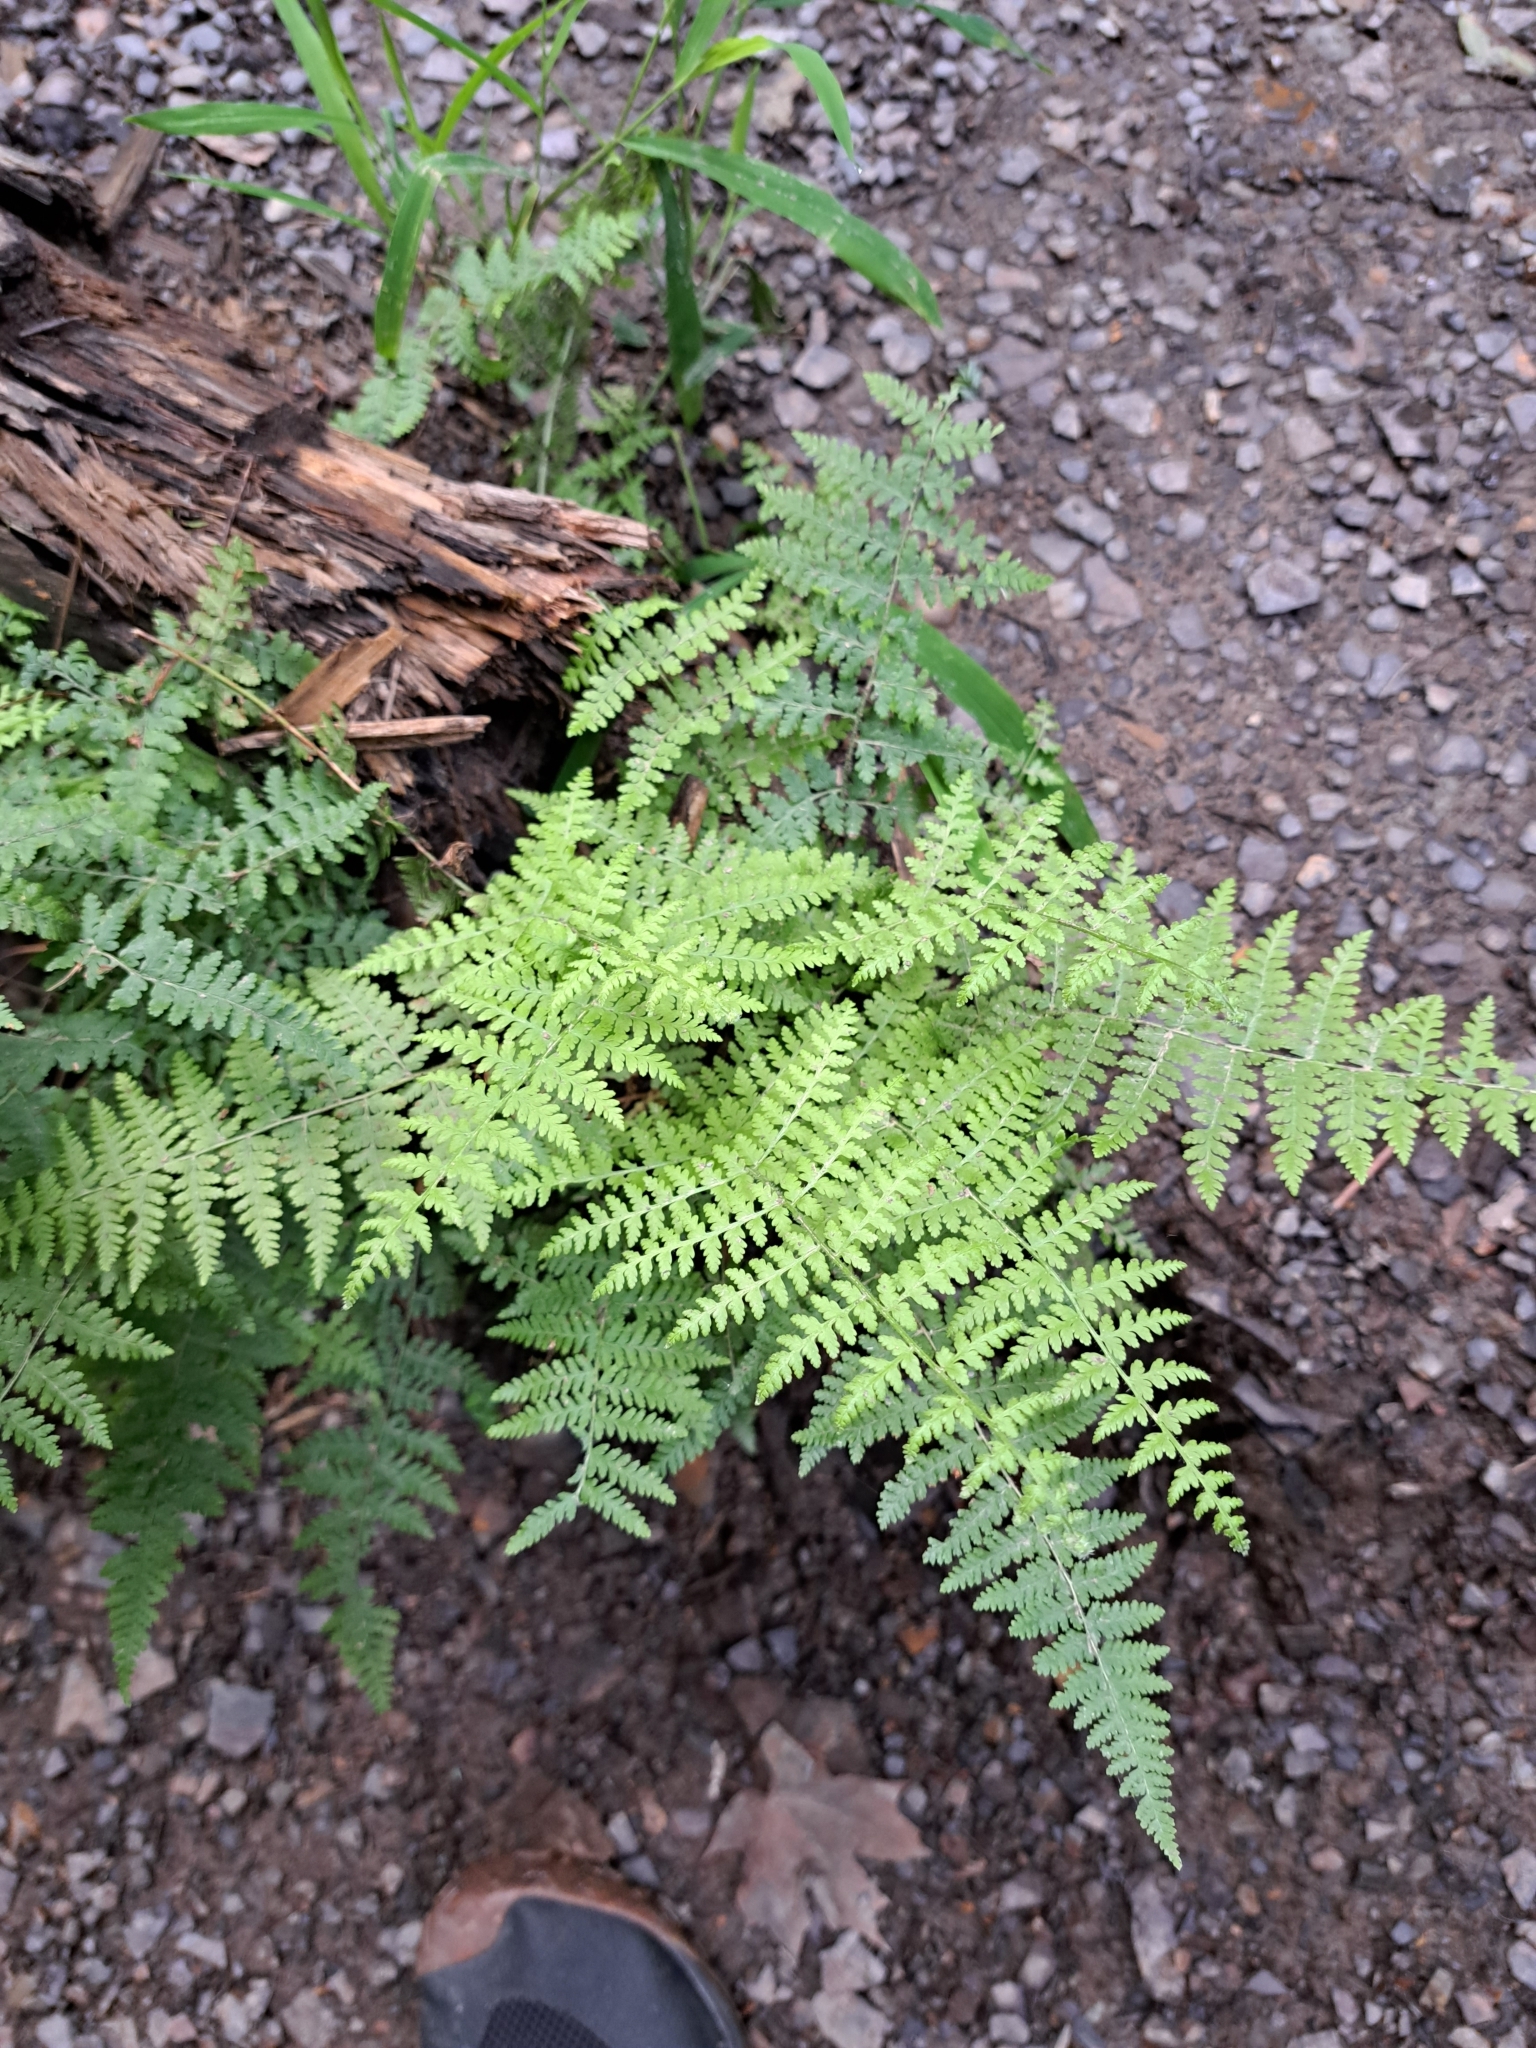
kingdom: Plantae
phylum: Tracheophyta
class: Polypodiopsida
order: Polypodiales
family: Dennstaedtiaceae
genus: Sitobolium
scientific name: Sitobolium punctilobum
